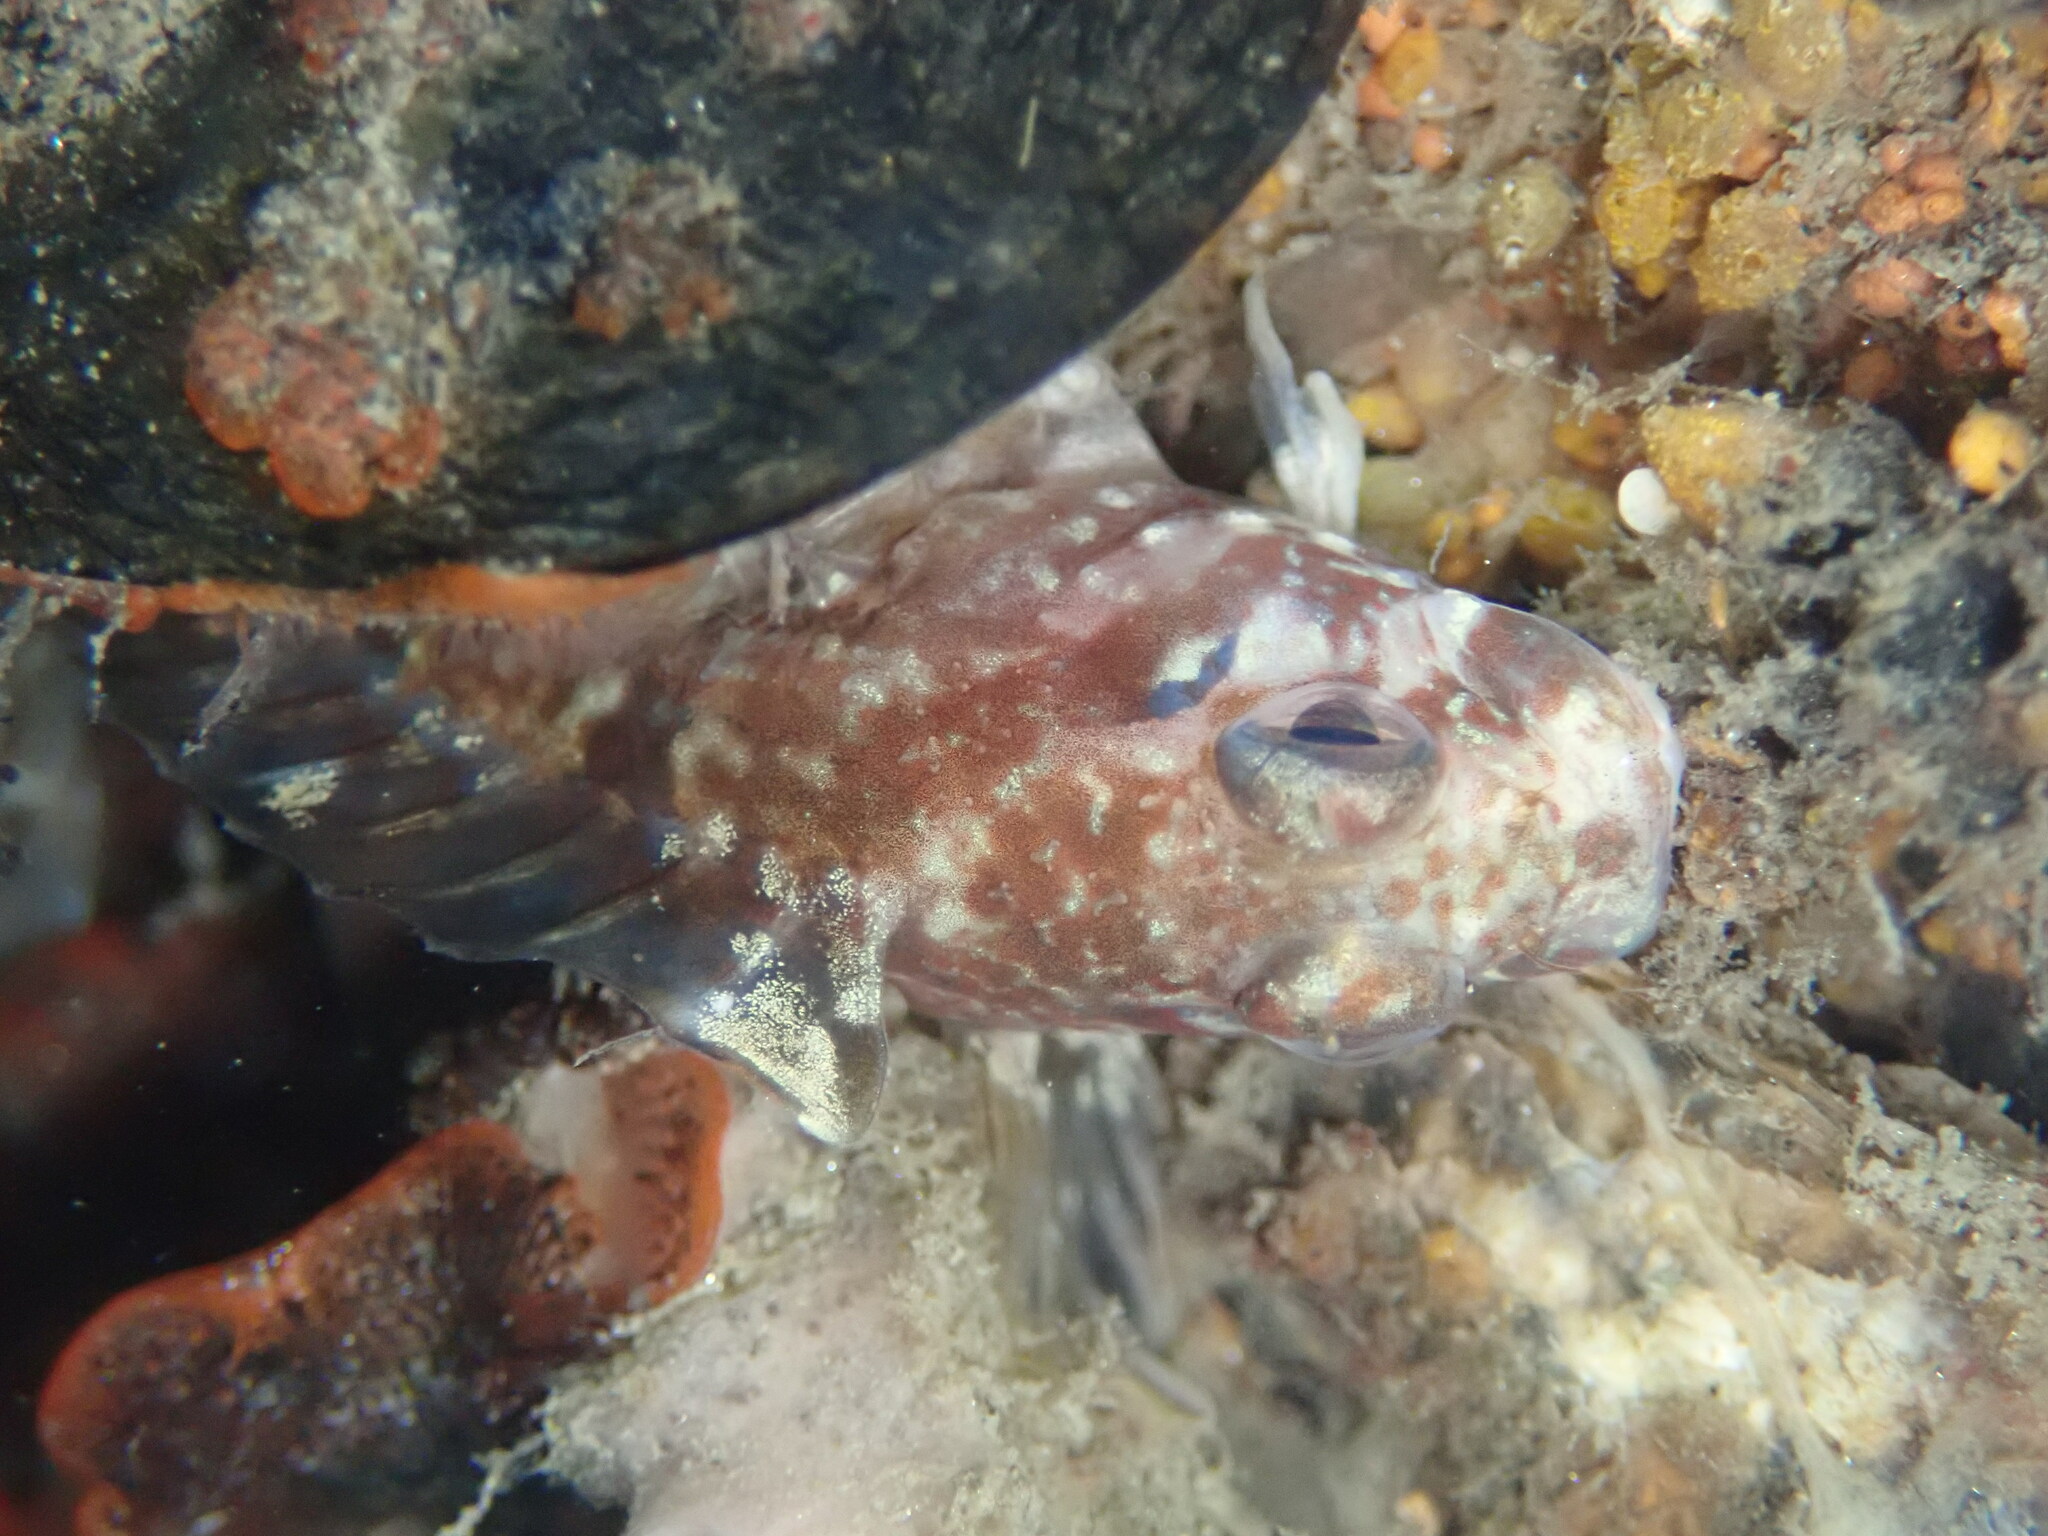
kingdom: Animalia
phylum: Chordata
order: Perciformes
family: Blenniidae
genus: Hypsoblennius
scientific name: Hypsoblennius jenkinsi
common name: Mussel blenny
